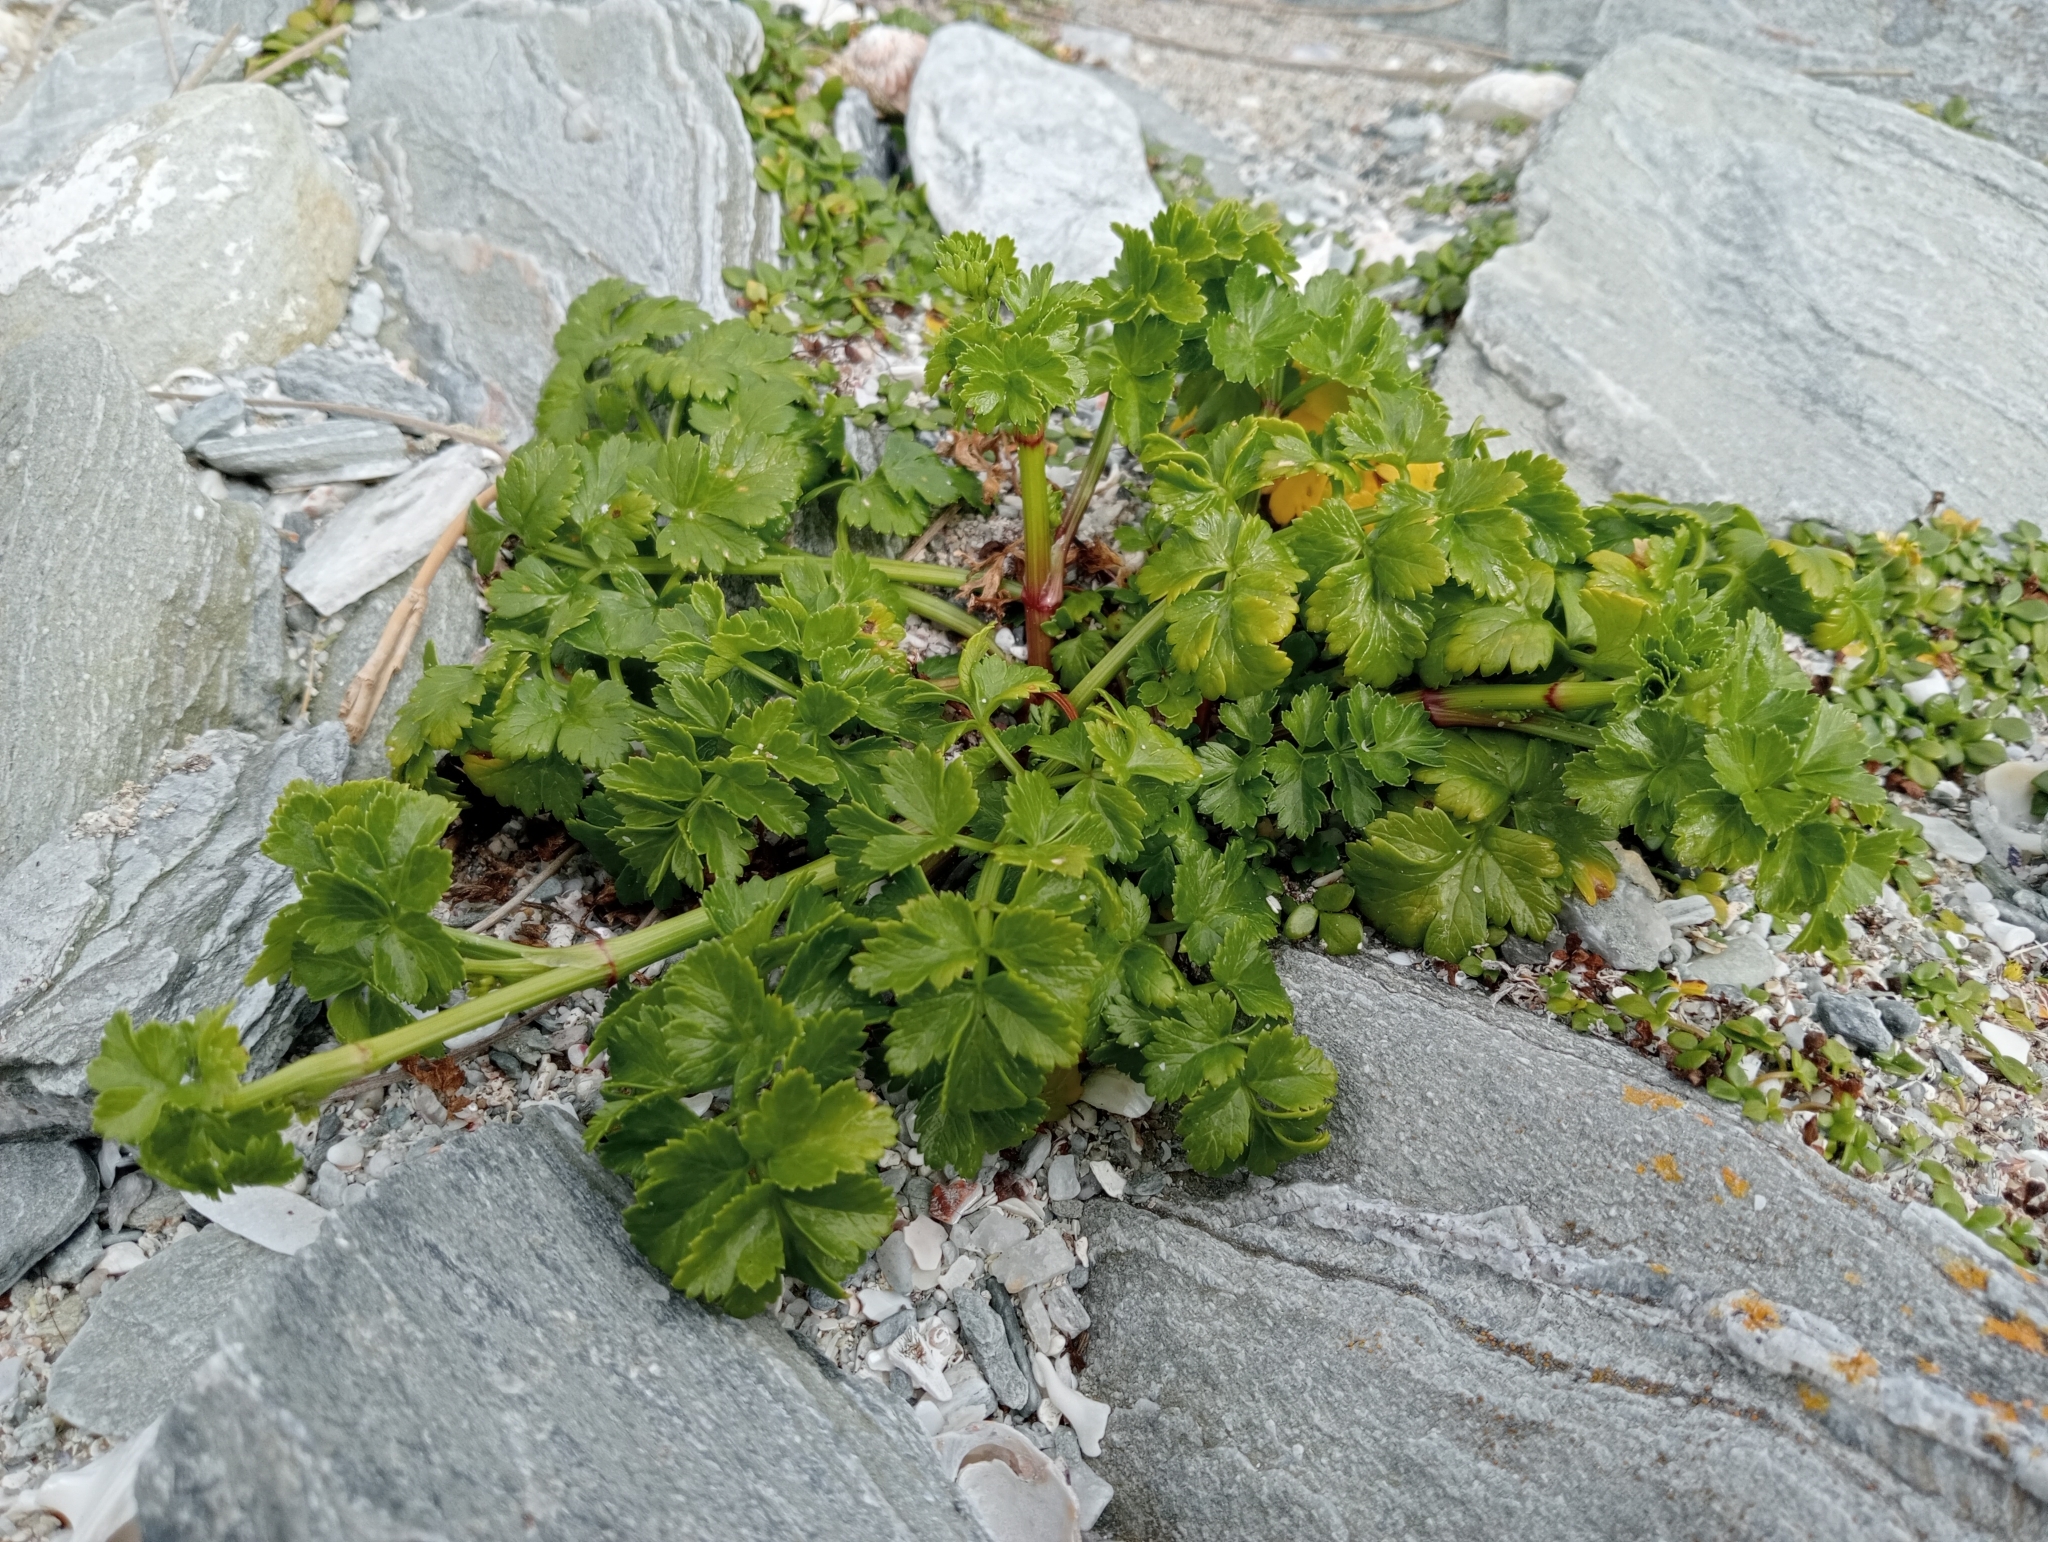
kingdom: Plantae
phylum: Tracheophyta
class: Magnoliopsida
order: Apiales
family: Apiaceae
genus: Apium
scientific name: Apium prostratum
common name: Prostrate marshwort
